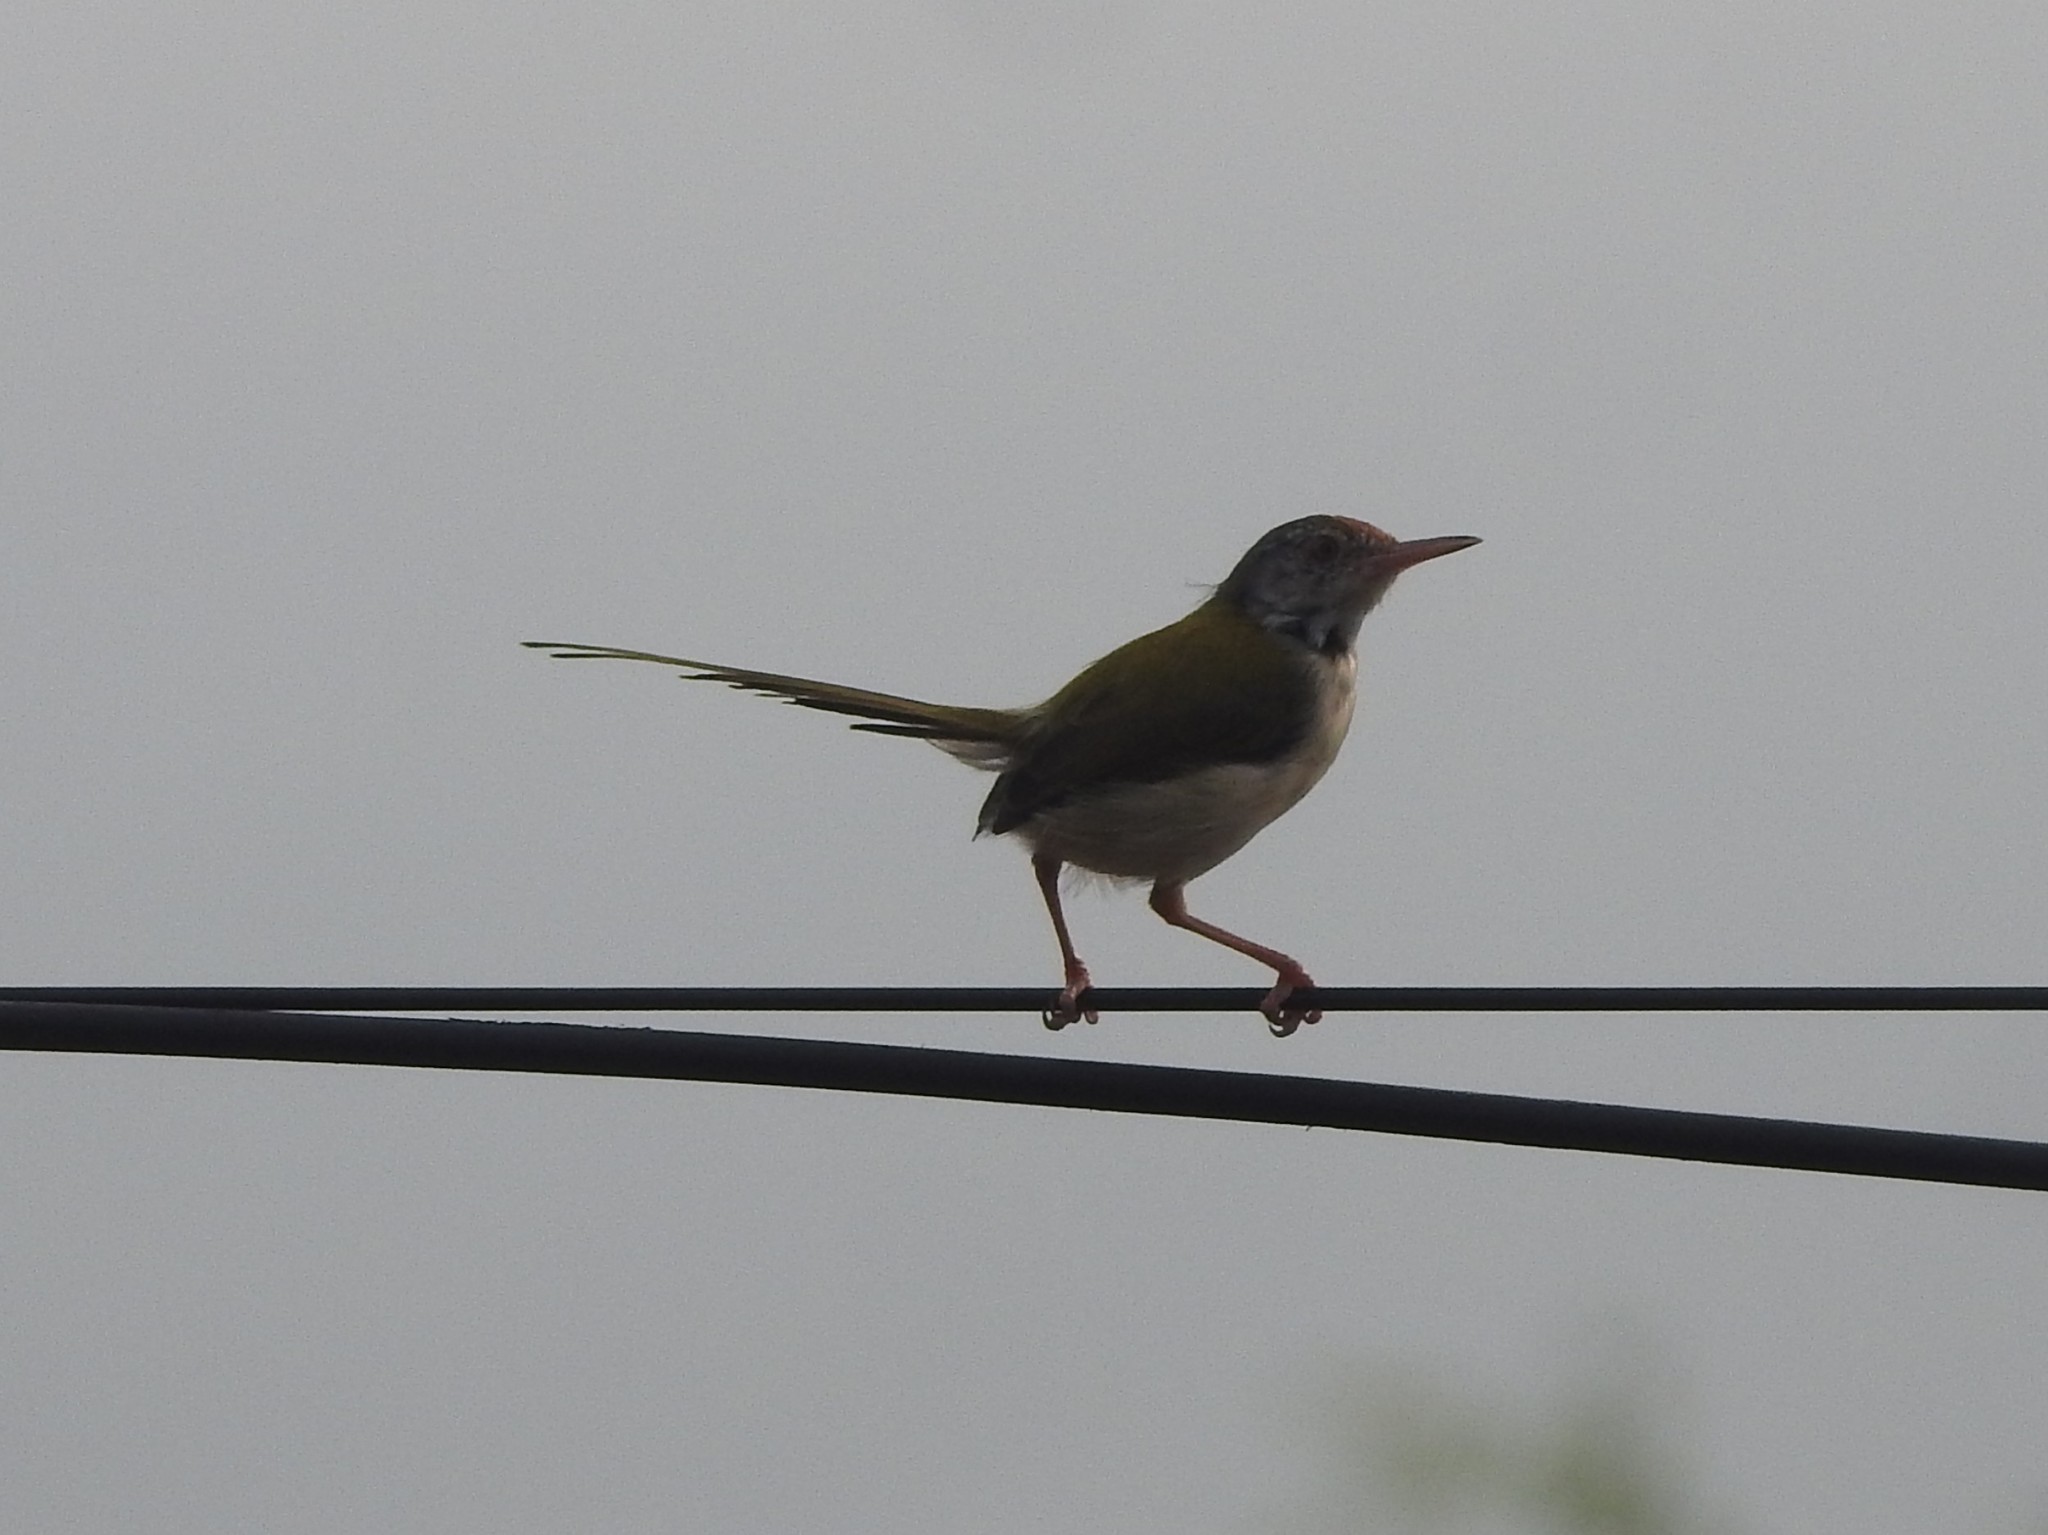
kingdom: Animalia
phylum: Chordata
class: Aves
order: Passeriformes
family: Cisticolidae
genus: Orthotomus
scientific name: Orthotomus sutorius
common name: Common tailorbird
